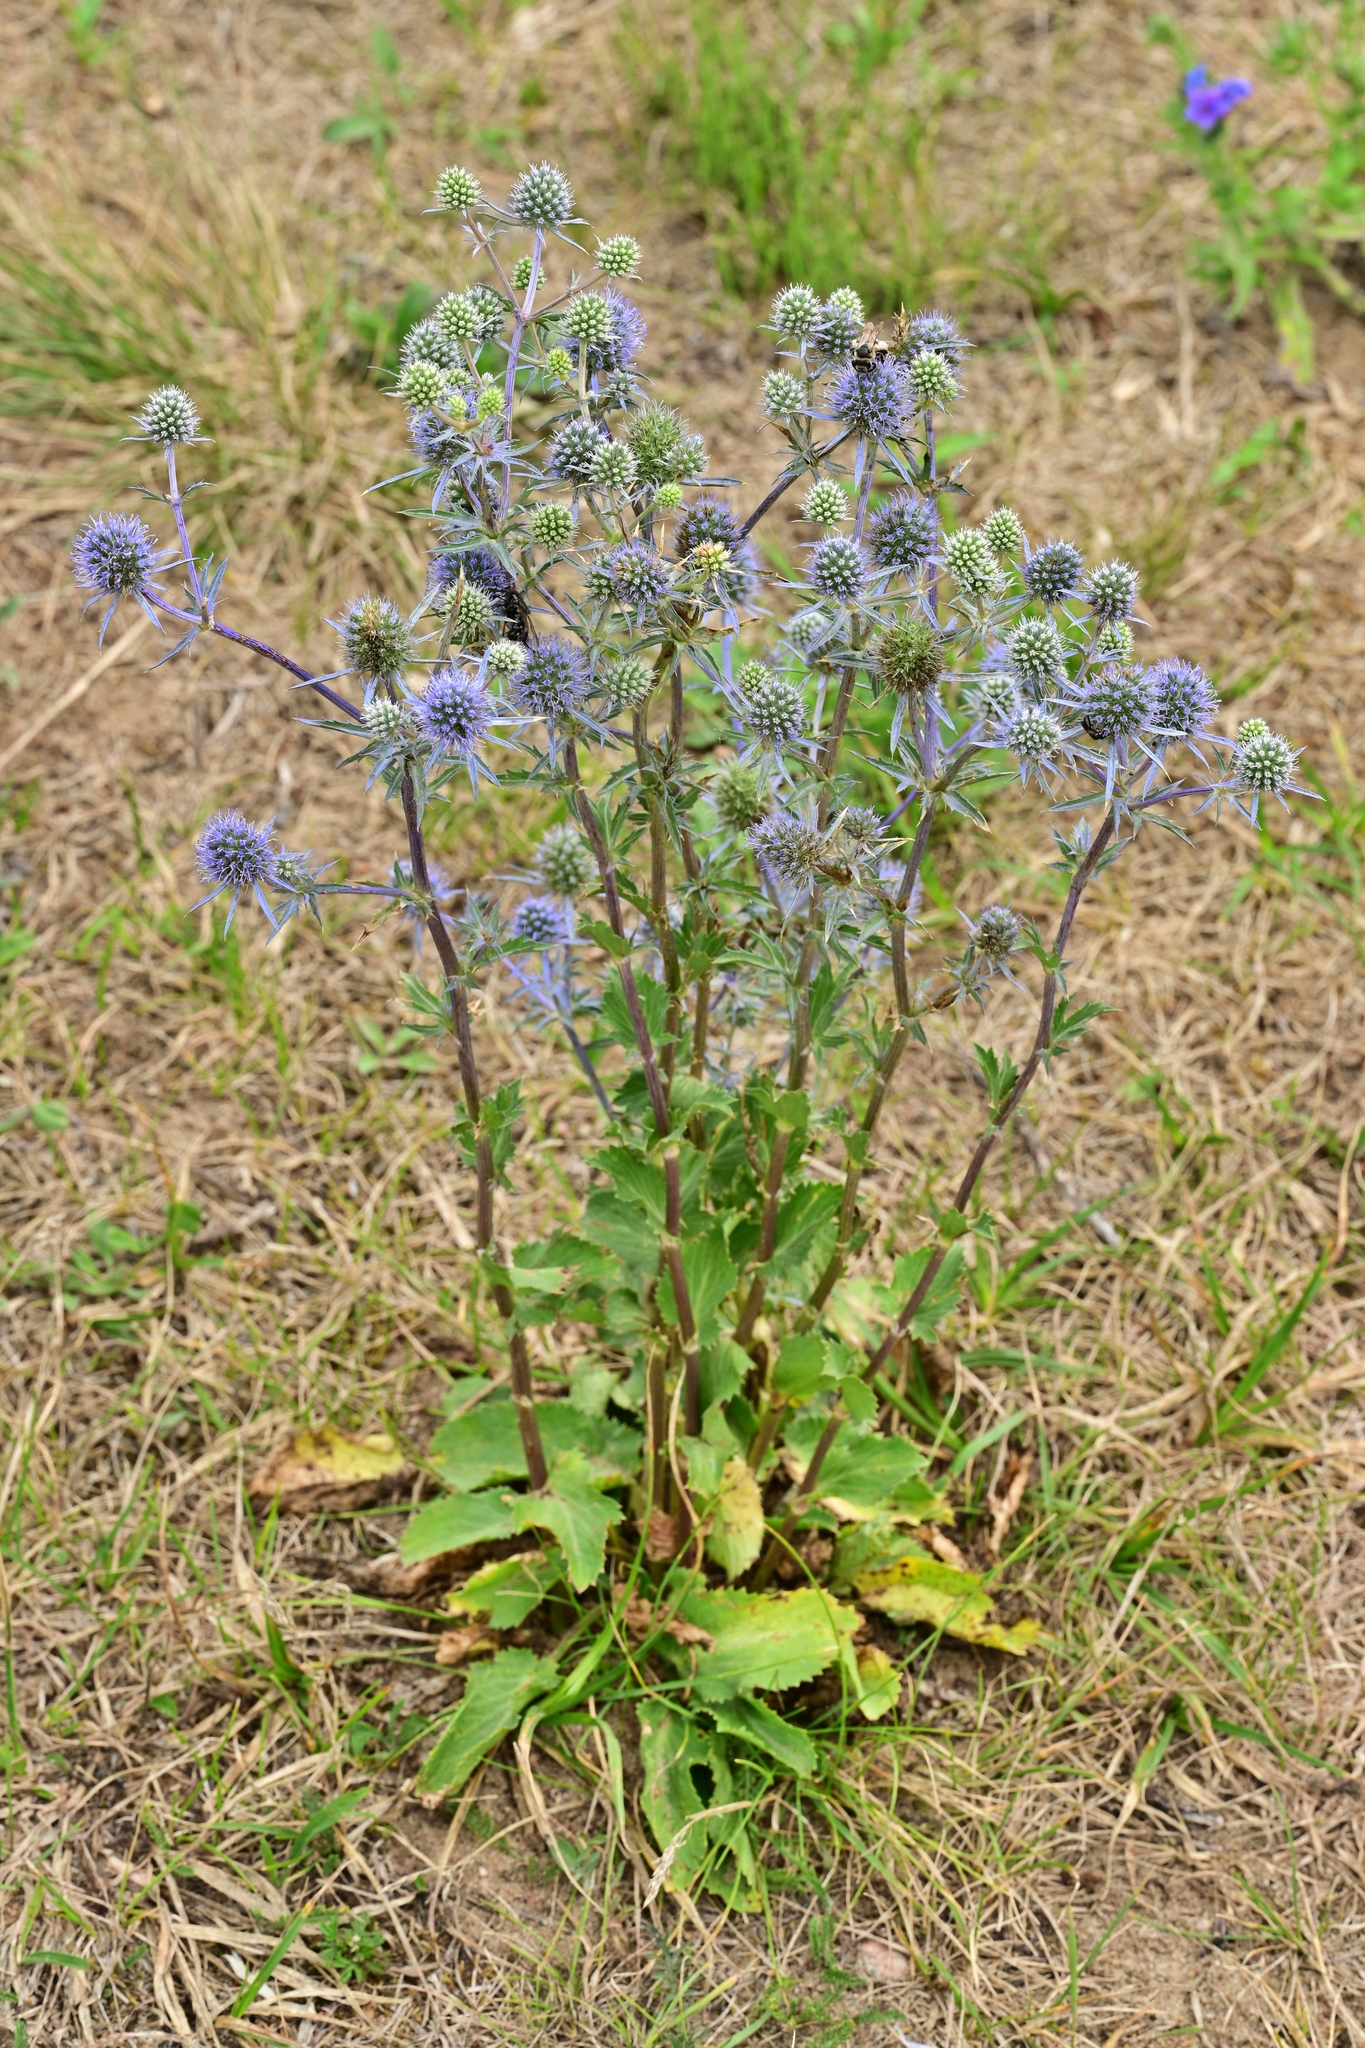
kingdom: Plantae
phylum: Tracheophyta
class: Magnoliopsida
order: Apiales
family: Apiaceae
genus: Eryngium
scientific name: Eryngium planum
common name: Blue eryngo
